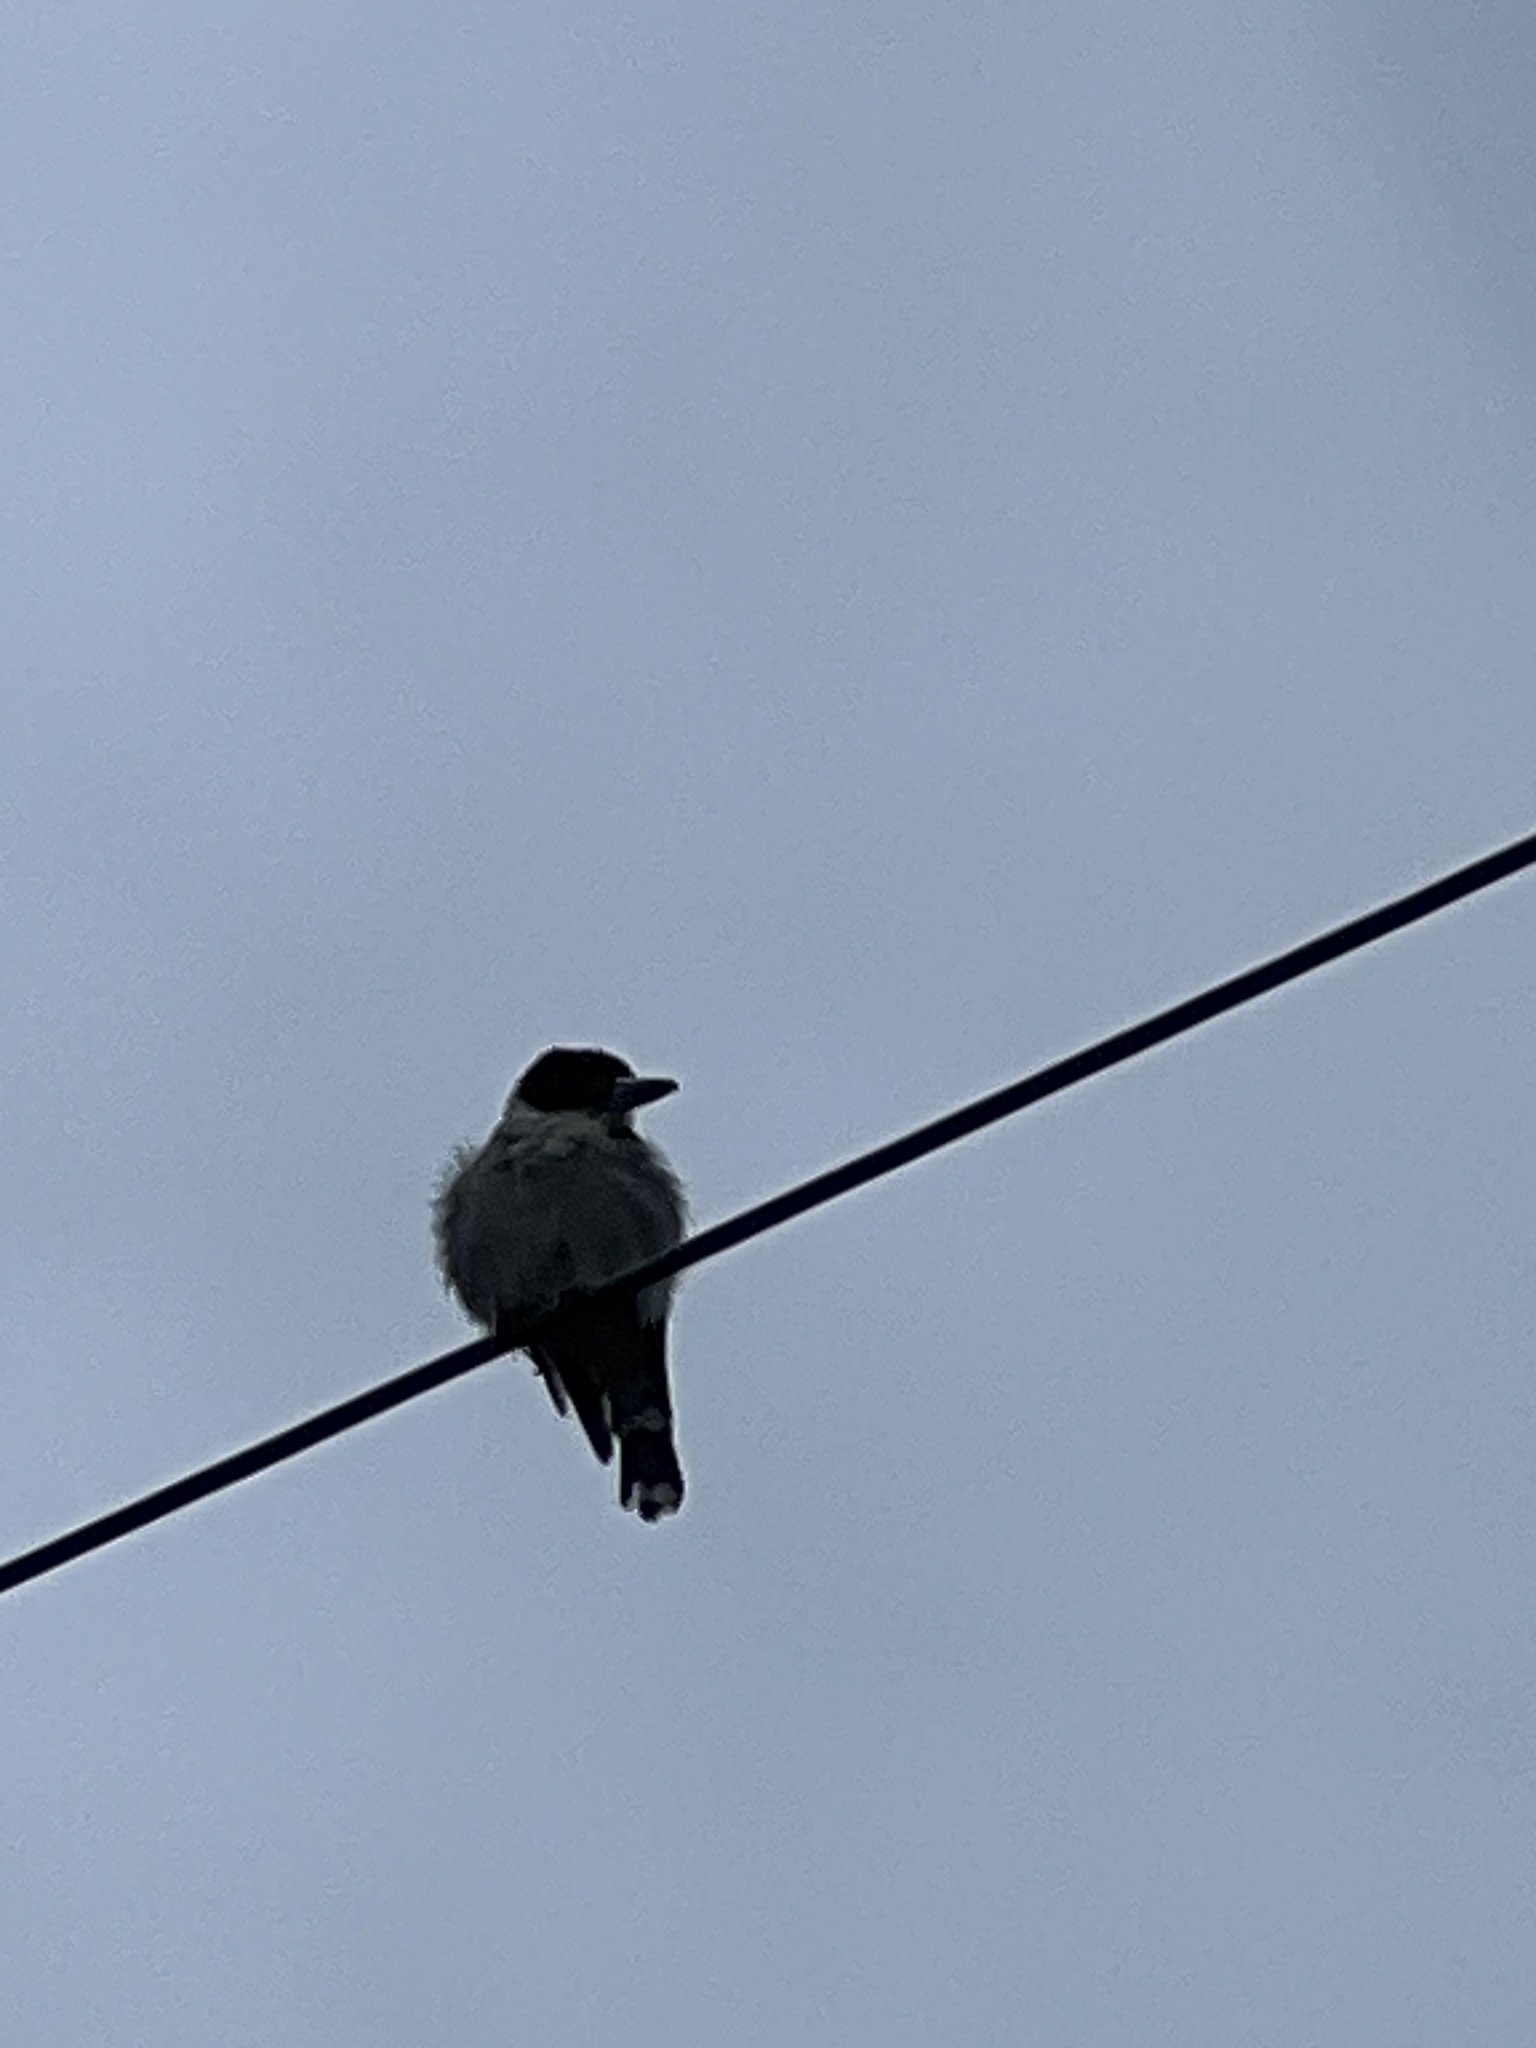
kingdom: Animalia
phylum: Chordata
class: Aves
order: Passeriformes
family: Cracticidae
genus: Cracticus
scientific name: Cracticus torquatus
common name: Grey butcherbird
